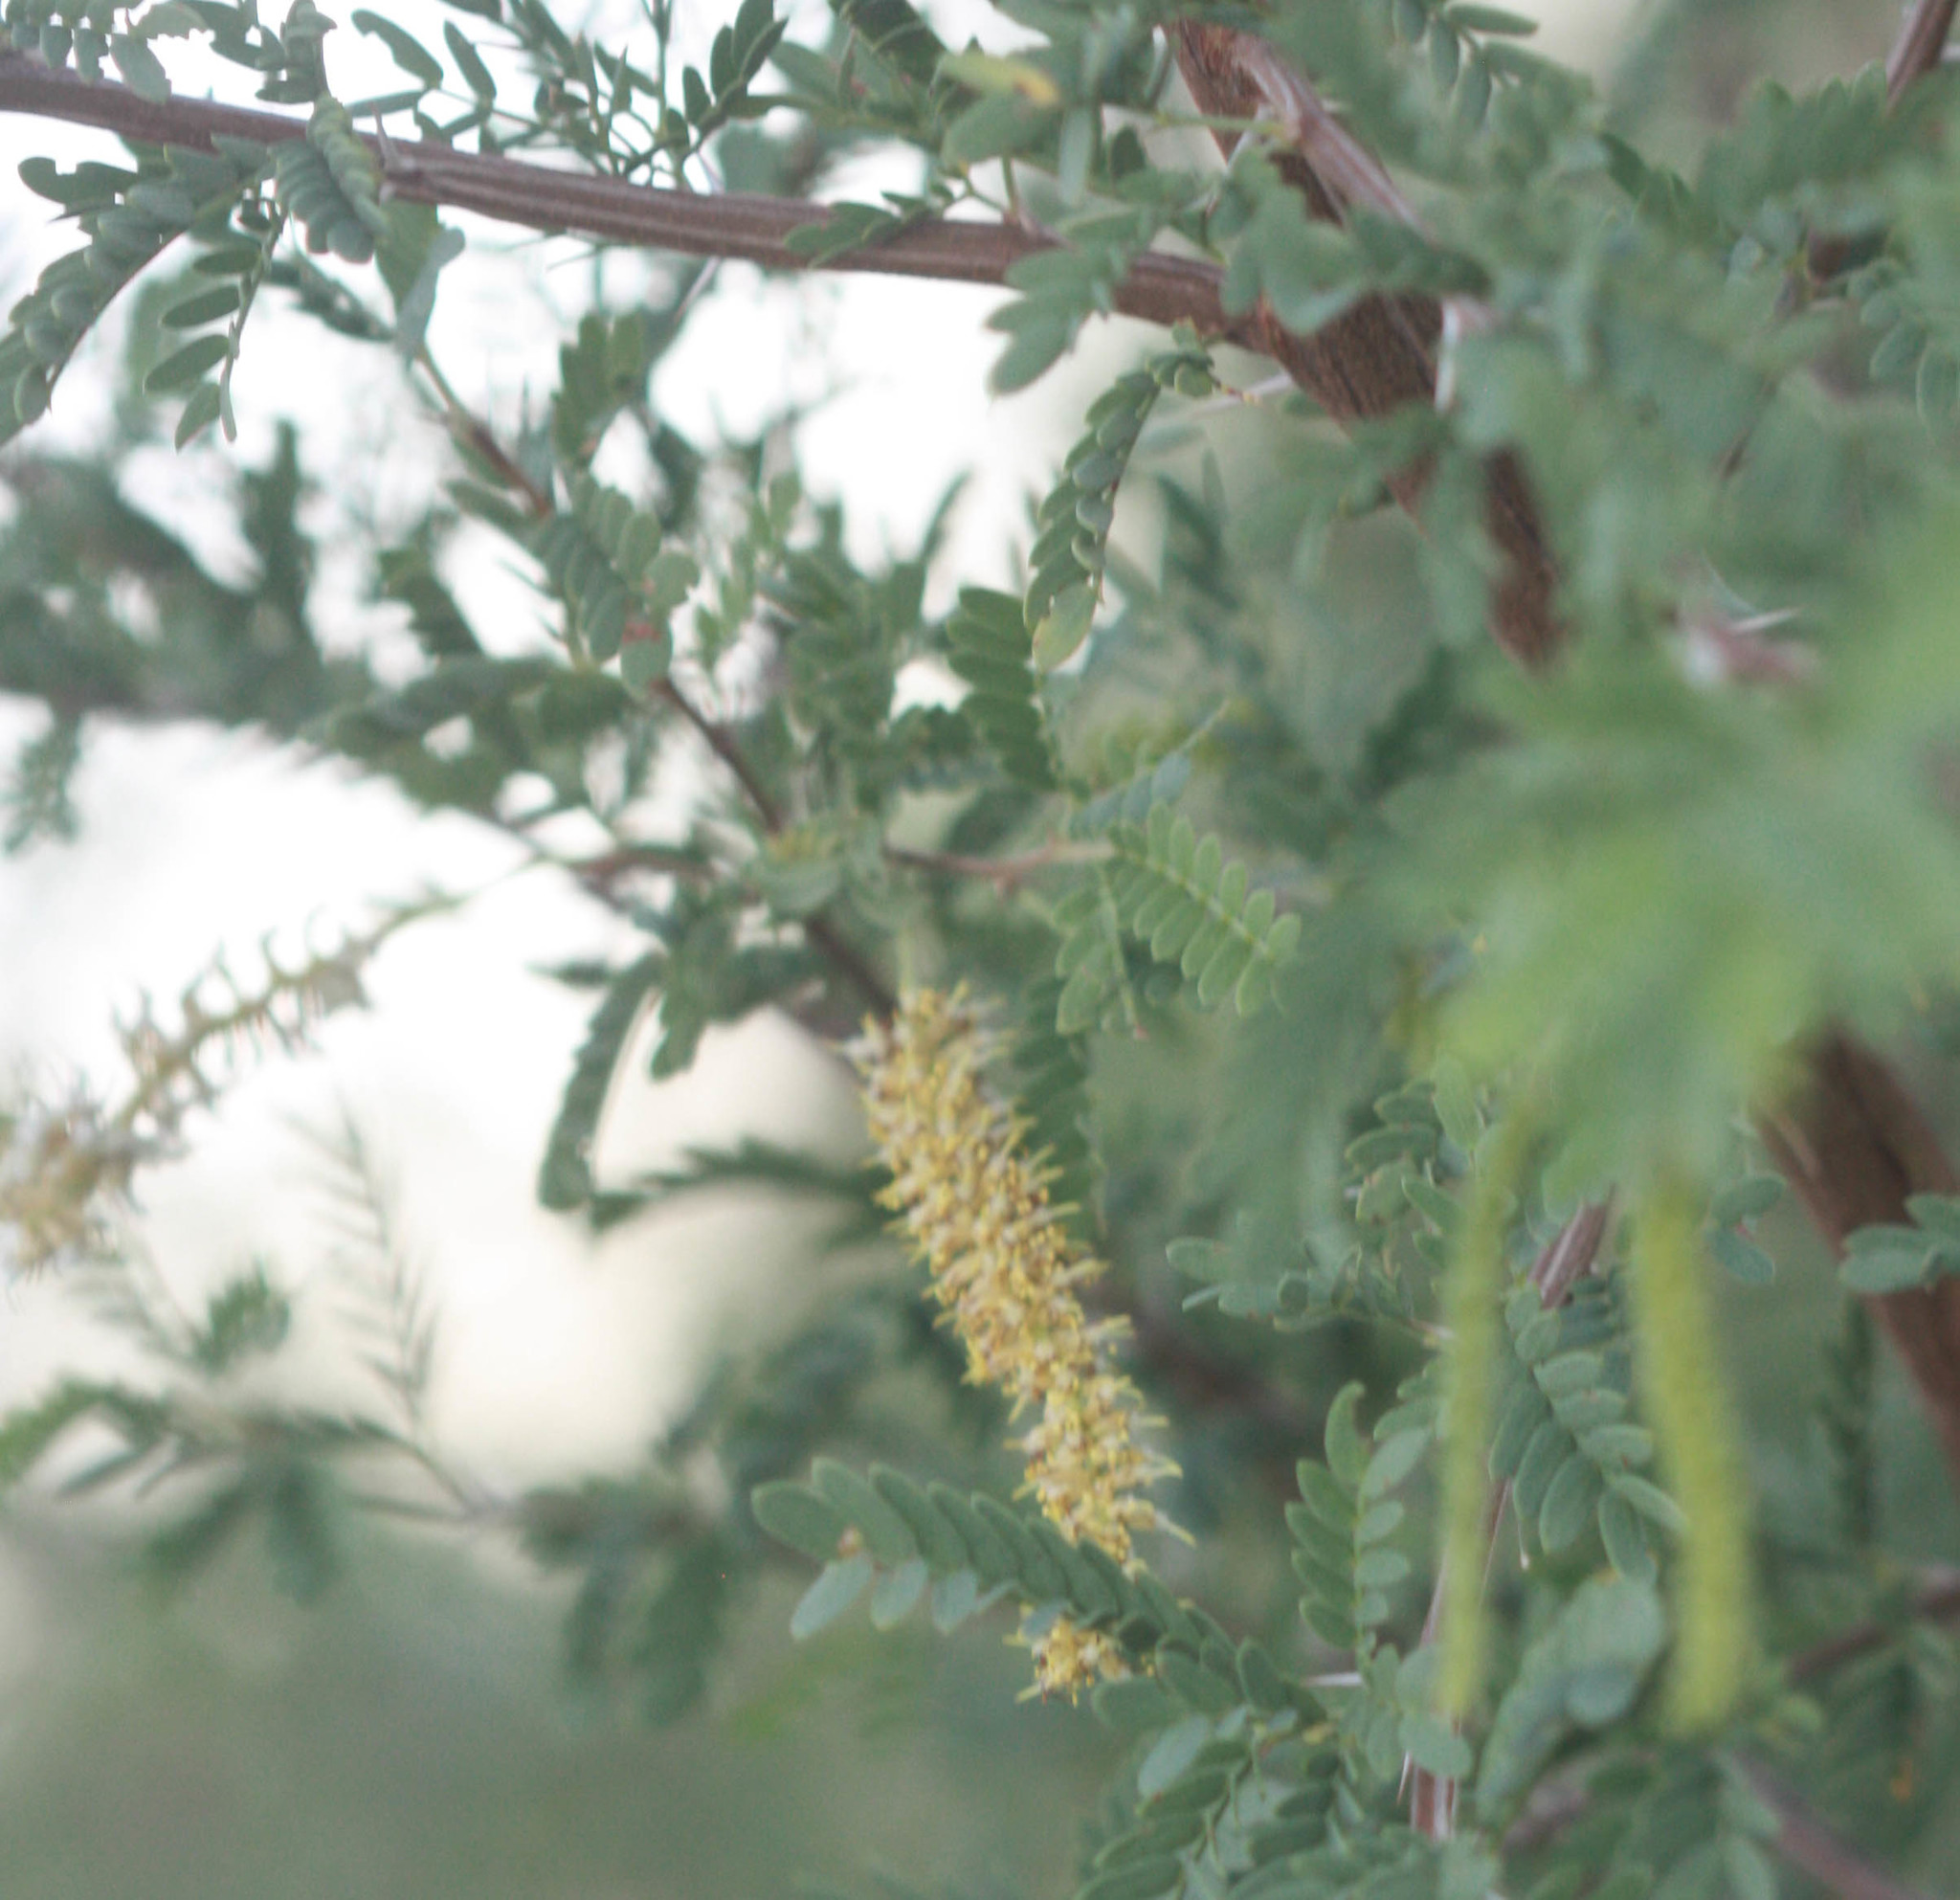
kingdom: Plantae
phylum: Tracheophyta
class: Magnoliopsida
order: Fabales
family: Fabaceae
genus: Prosopis
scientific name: Prosopis pubescens
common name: Screw-bean
